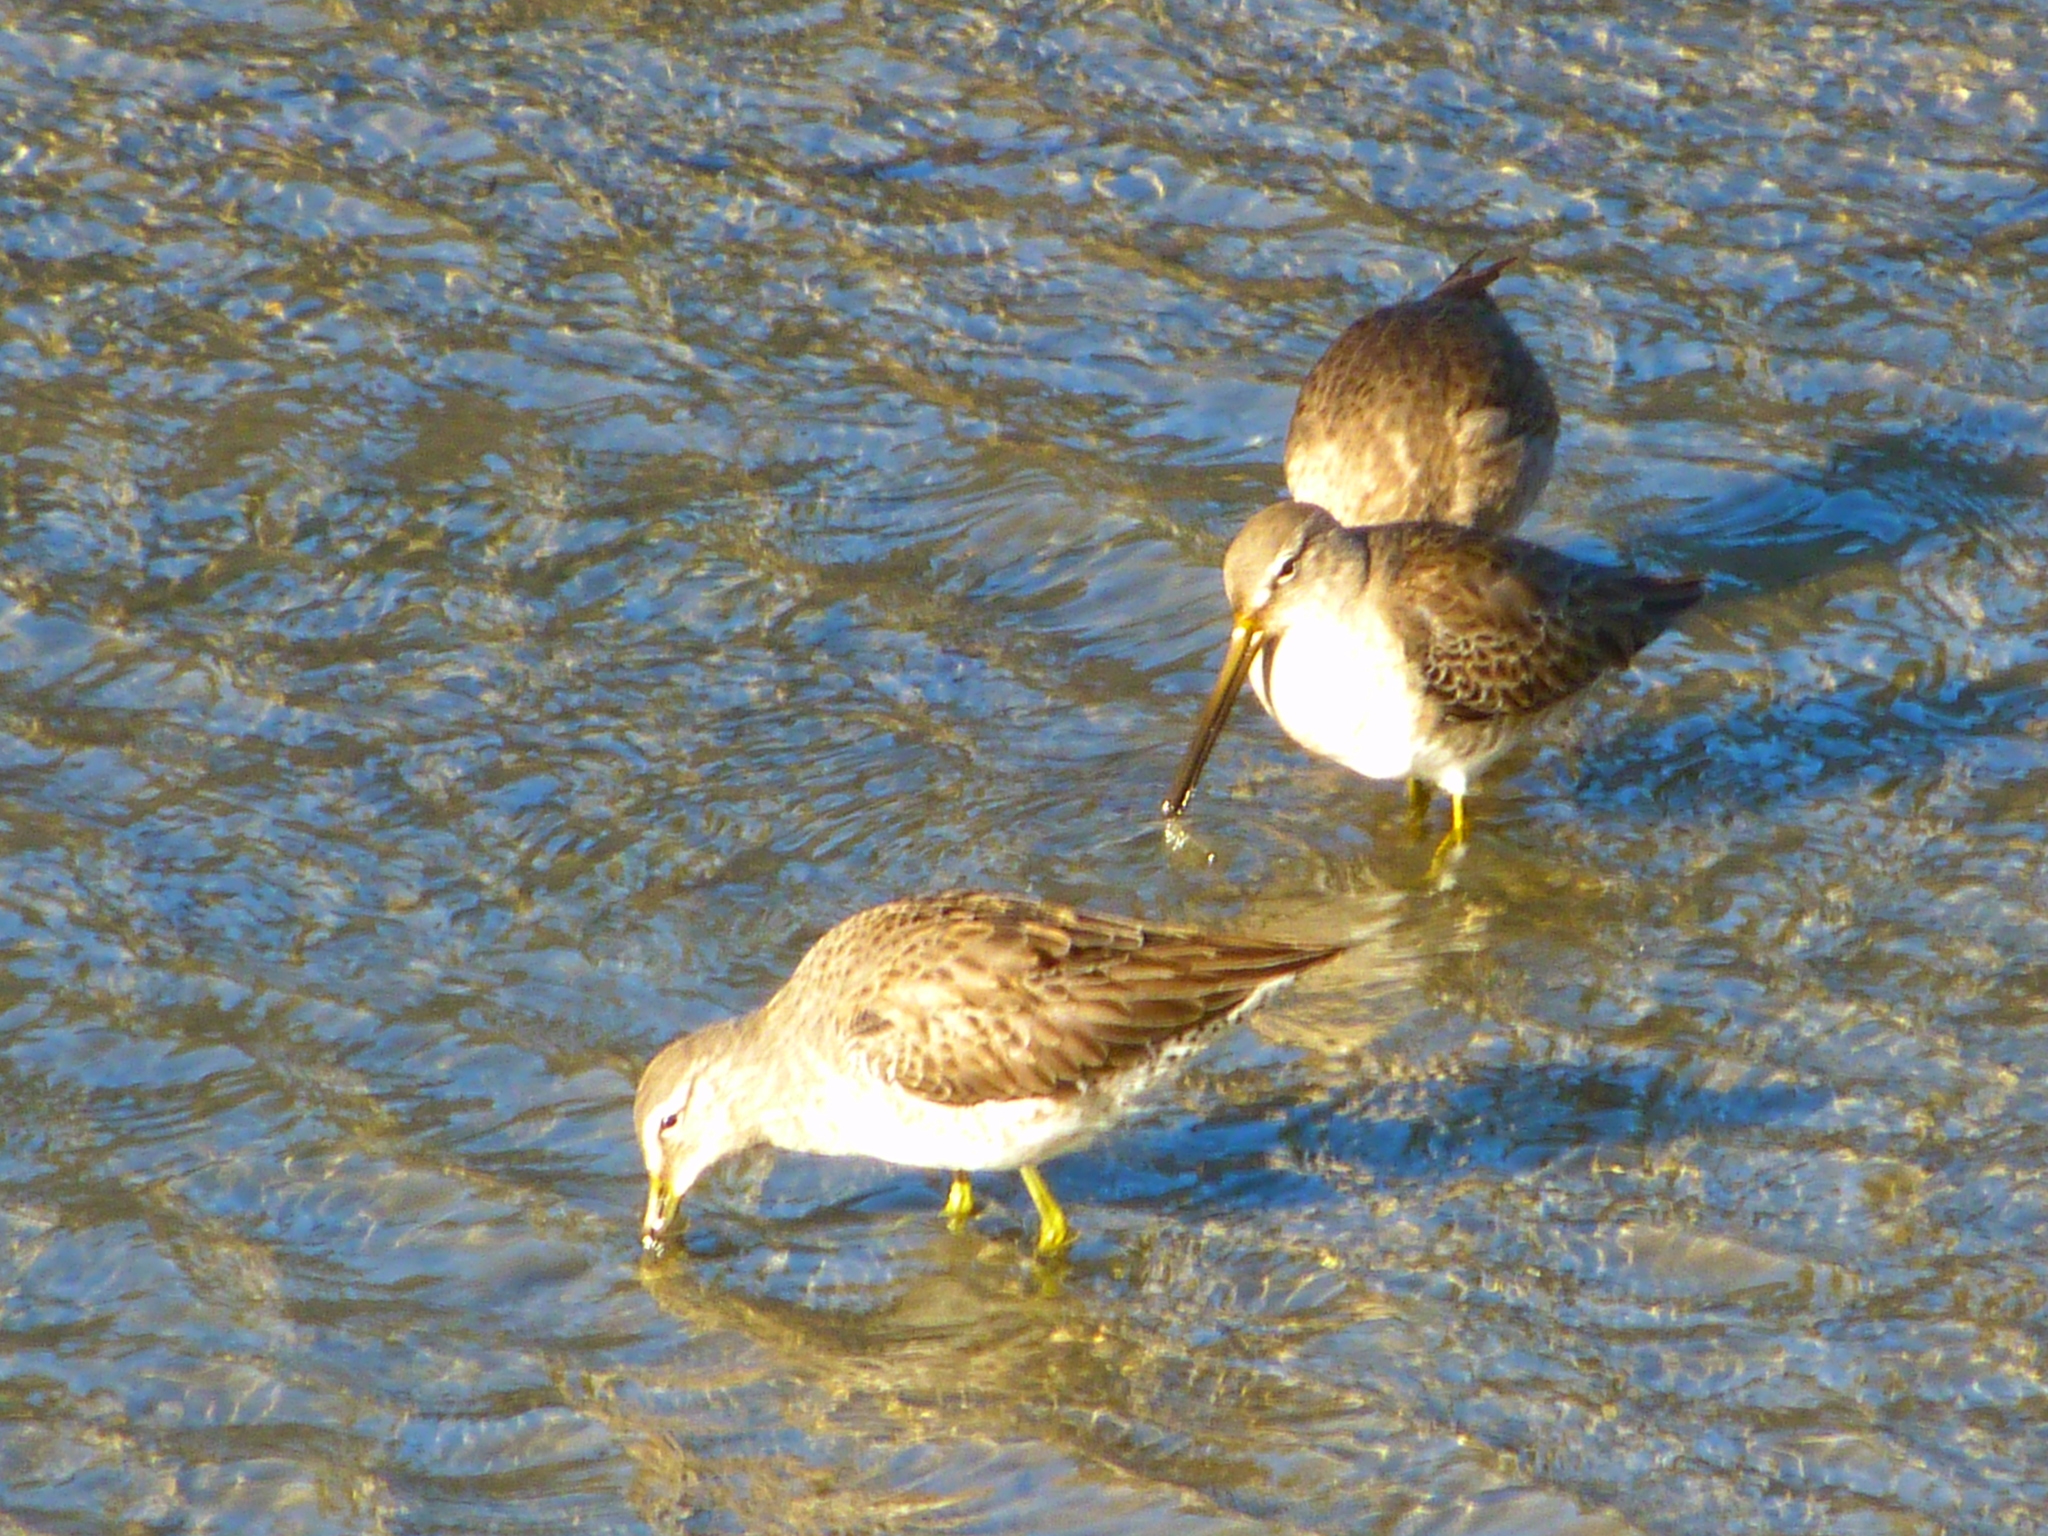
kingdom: Animalia
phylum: Chordata
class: Aves
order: Charadriiformes
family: Scolopacidae
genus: Limnodromus
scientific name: Limnodromus
